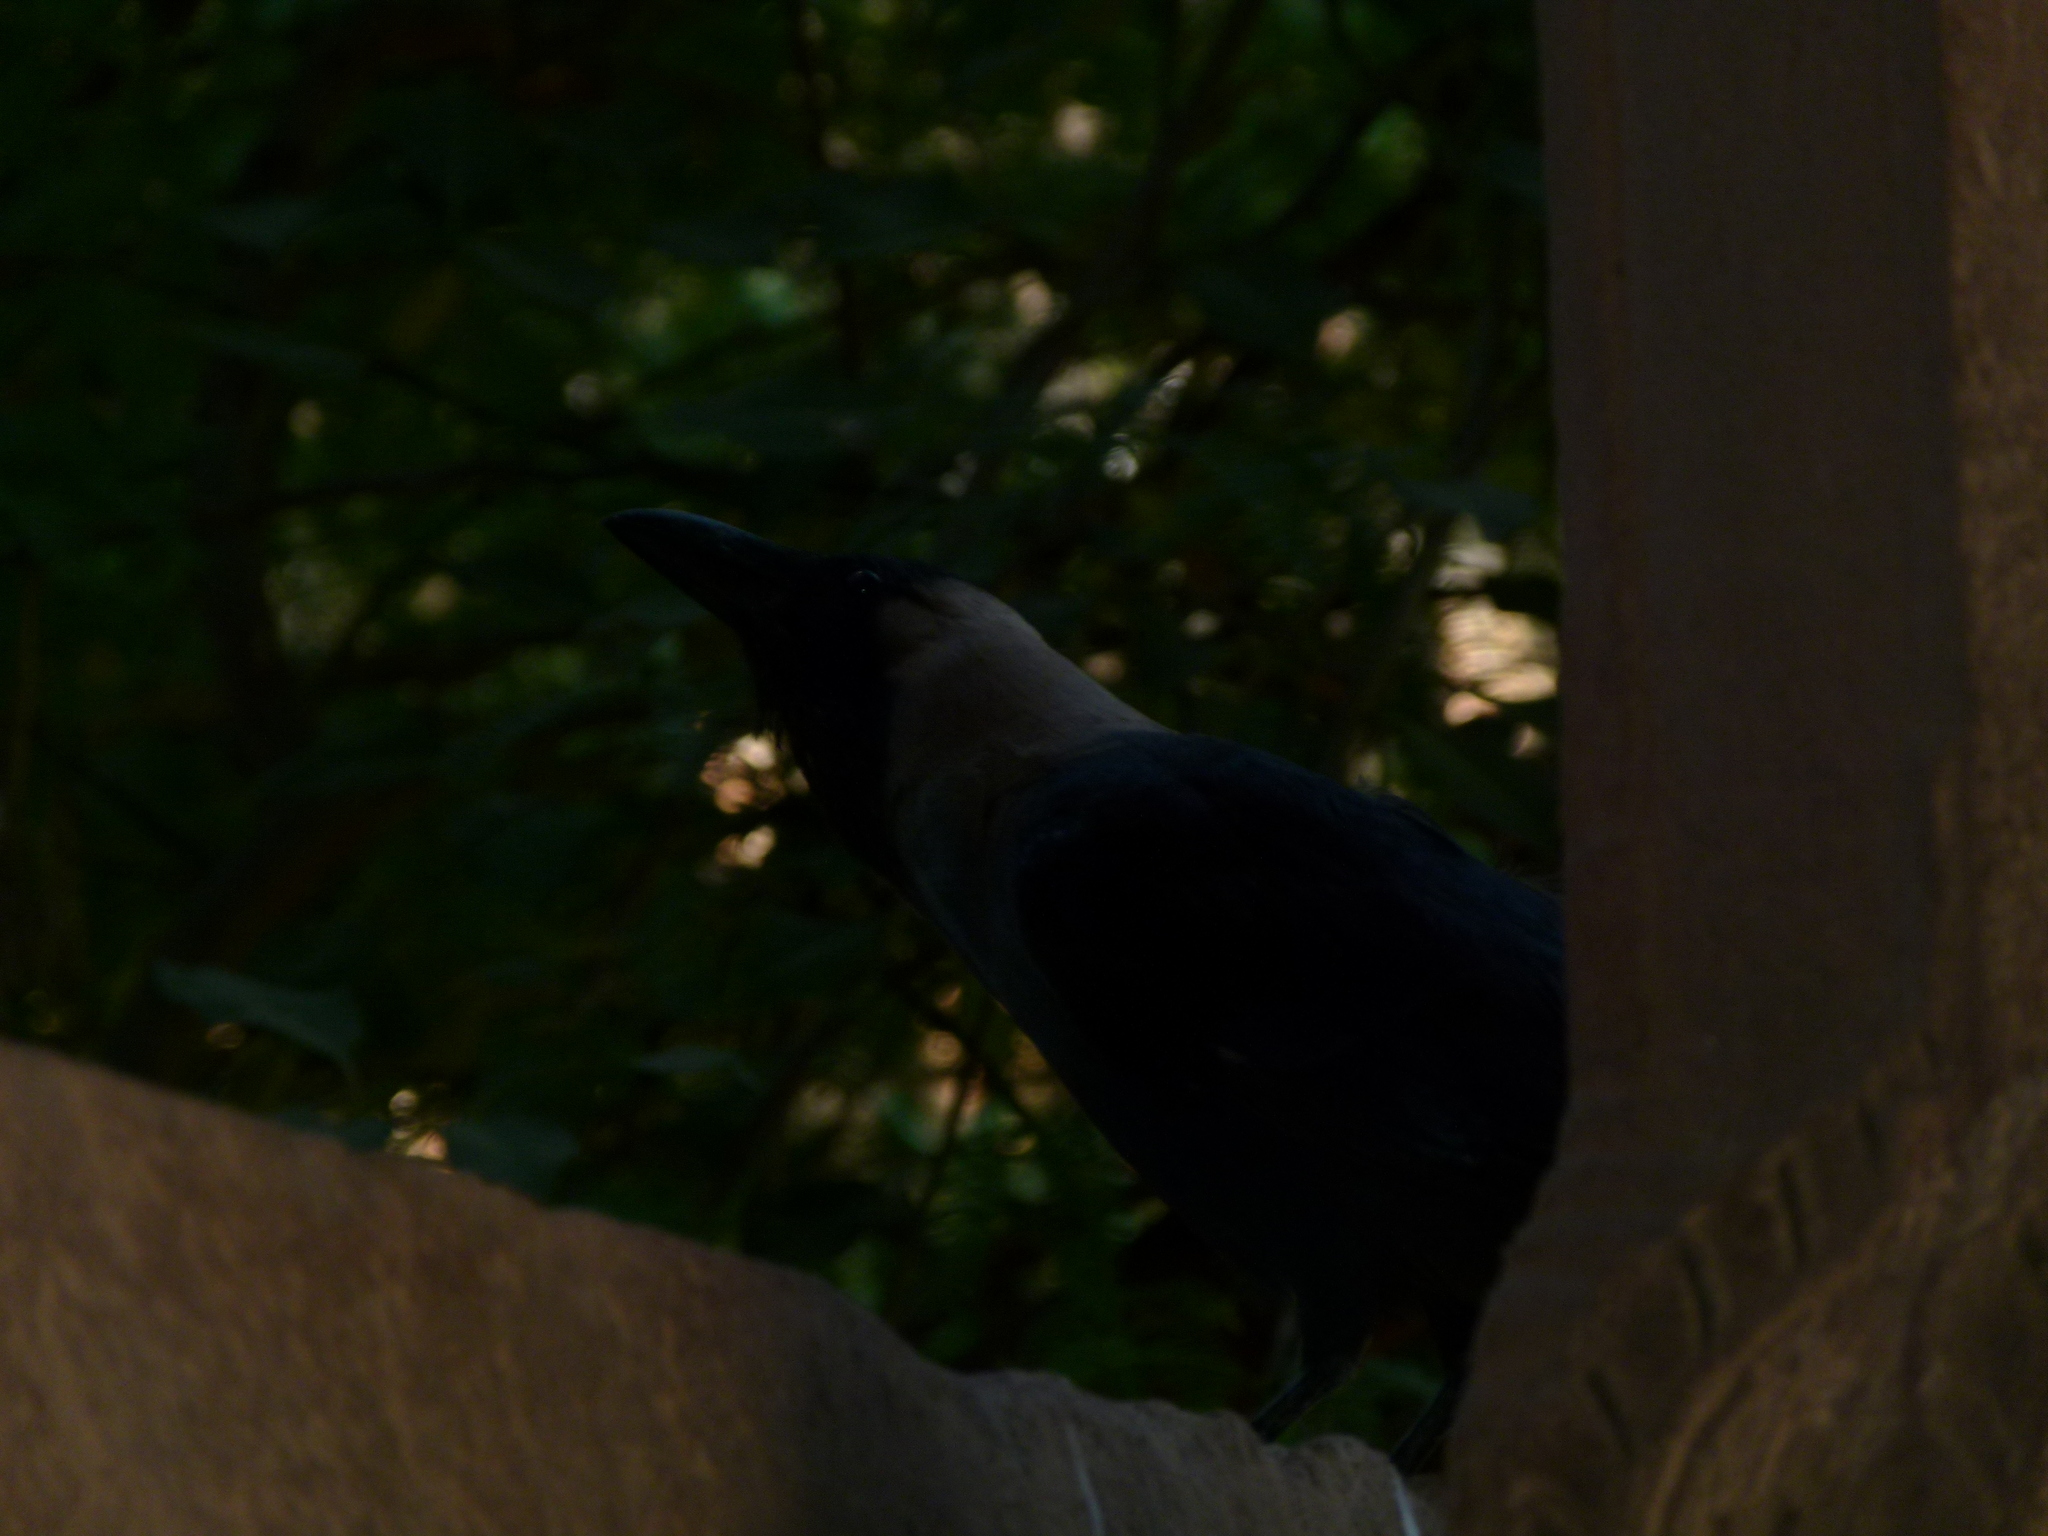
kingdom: Animalia
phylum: Chordata
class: Aves
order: Passeriformes
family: Corvidae
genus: Corvus
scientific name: Corvus splendens
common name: House crow
